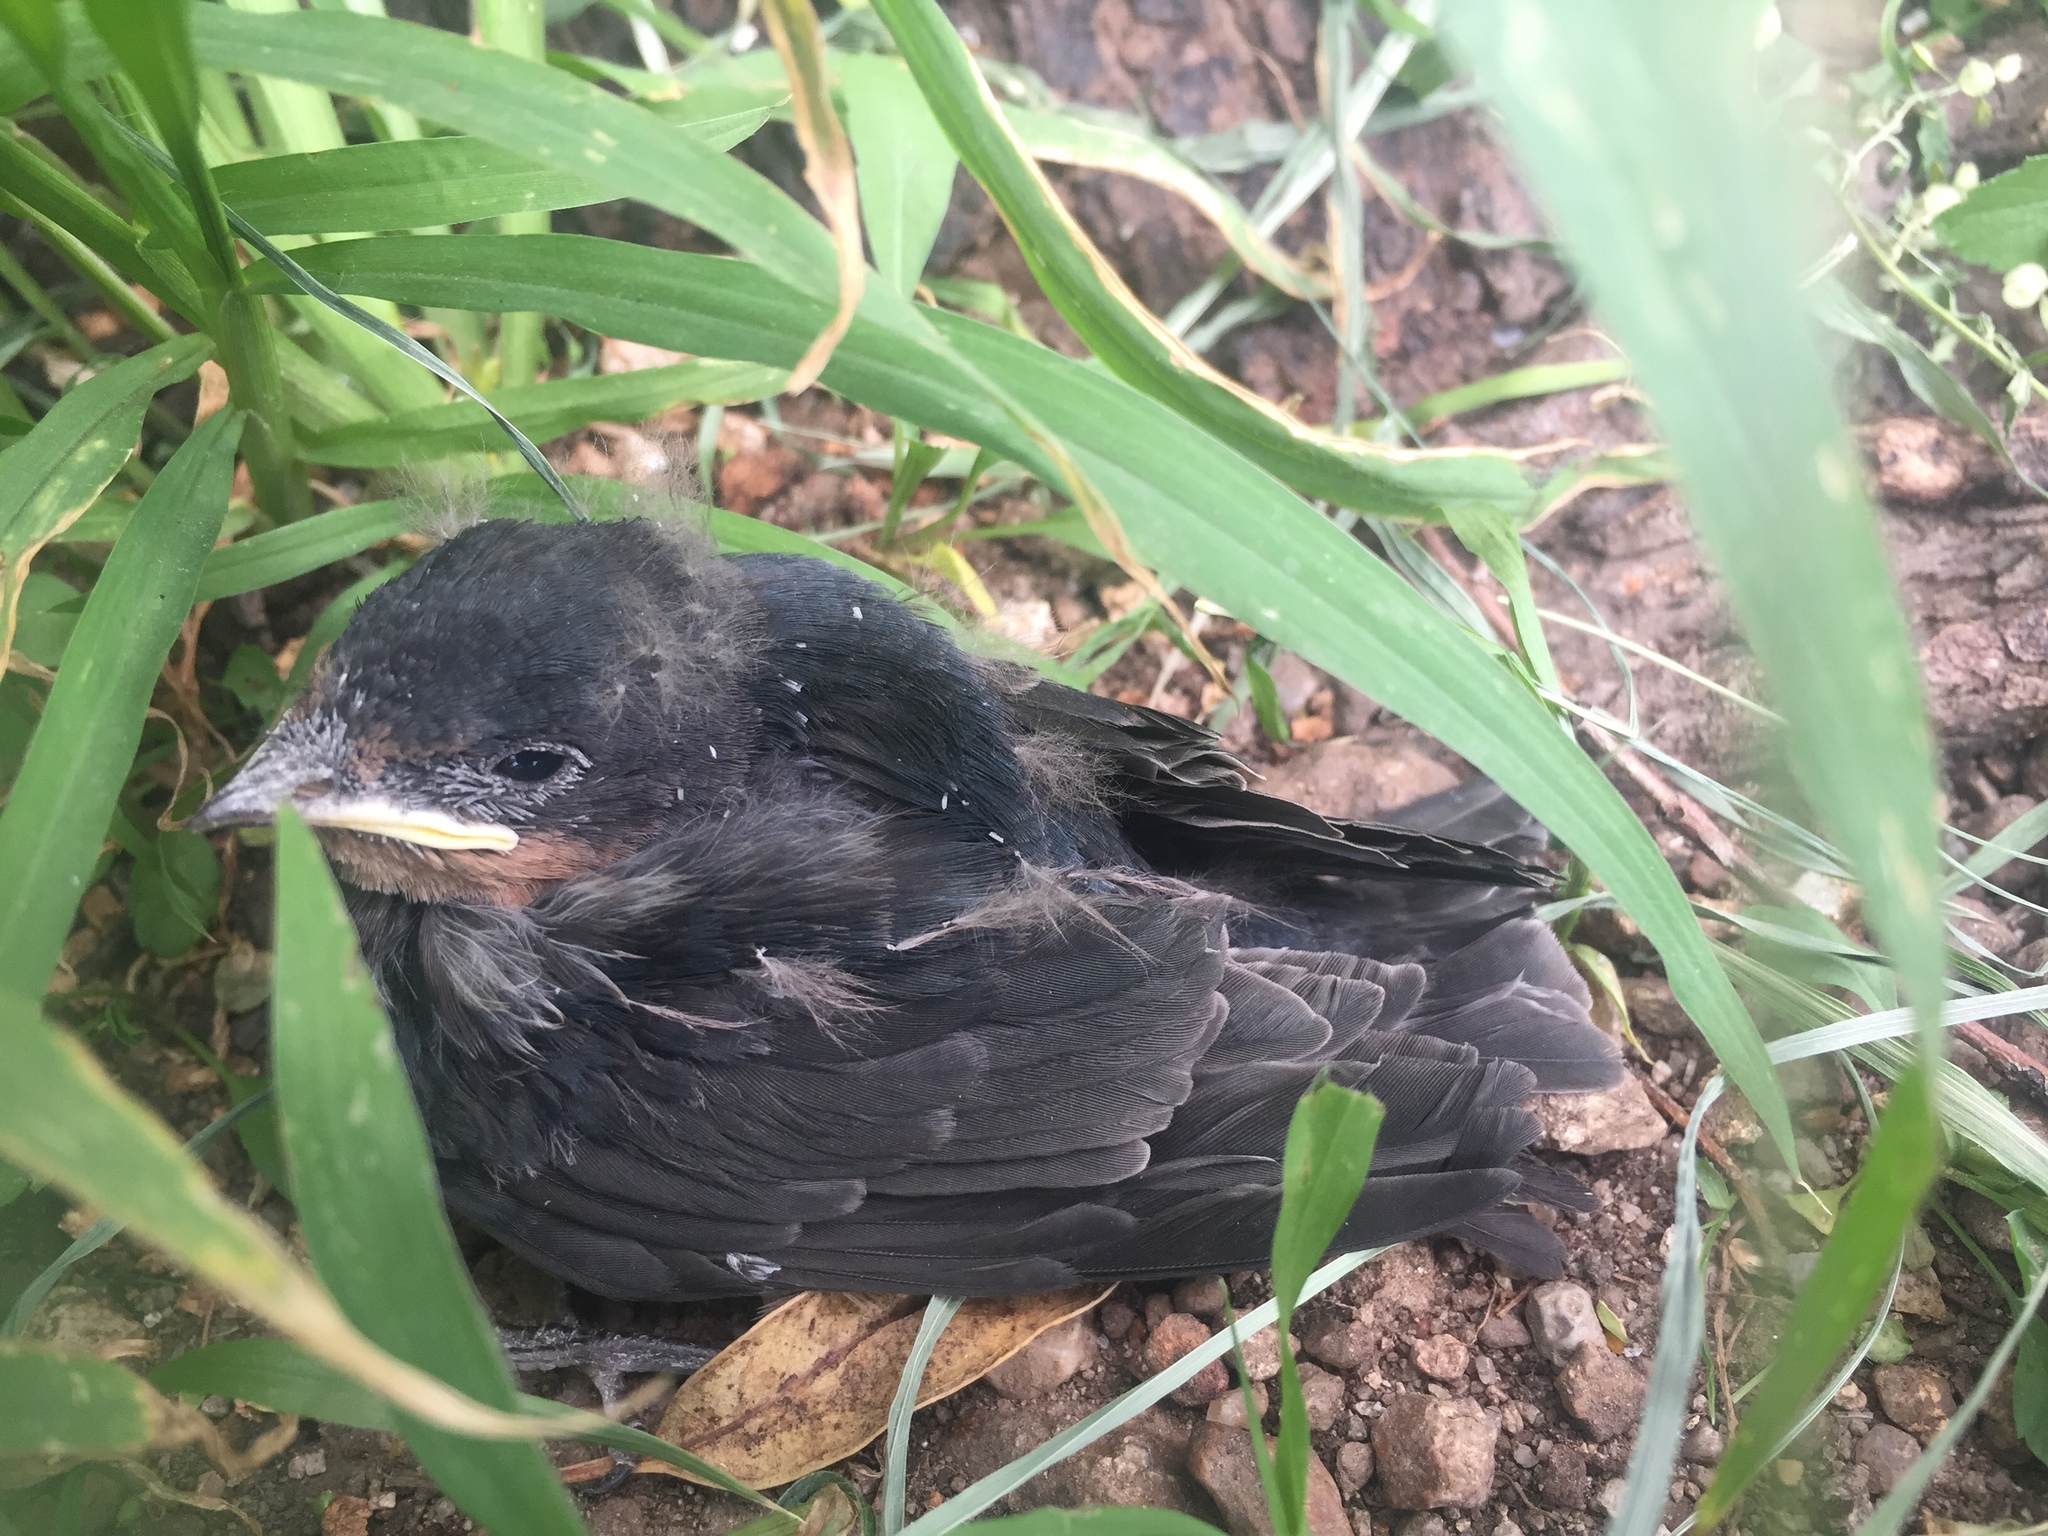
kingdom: Animalia
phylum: Chordata
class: Aves
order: Passeriformes
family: Hirundinidae
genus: Hirundo
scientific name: Hirundo rustica
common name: Barn swallow
